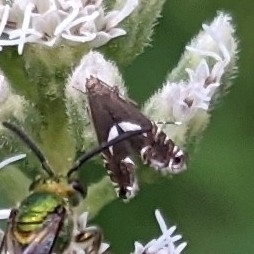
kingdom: Animalia
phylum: Arthropoda
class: Insecta
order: Lepidoptera
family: Glyphipterigidae
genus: Glyphipterix
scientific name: Glyphipterix Diploschizia impigritella
